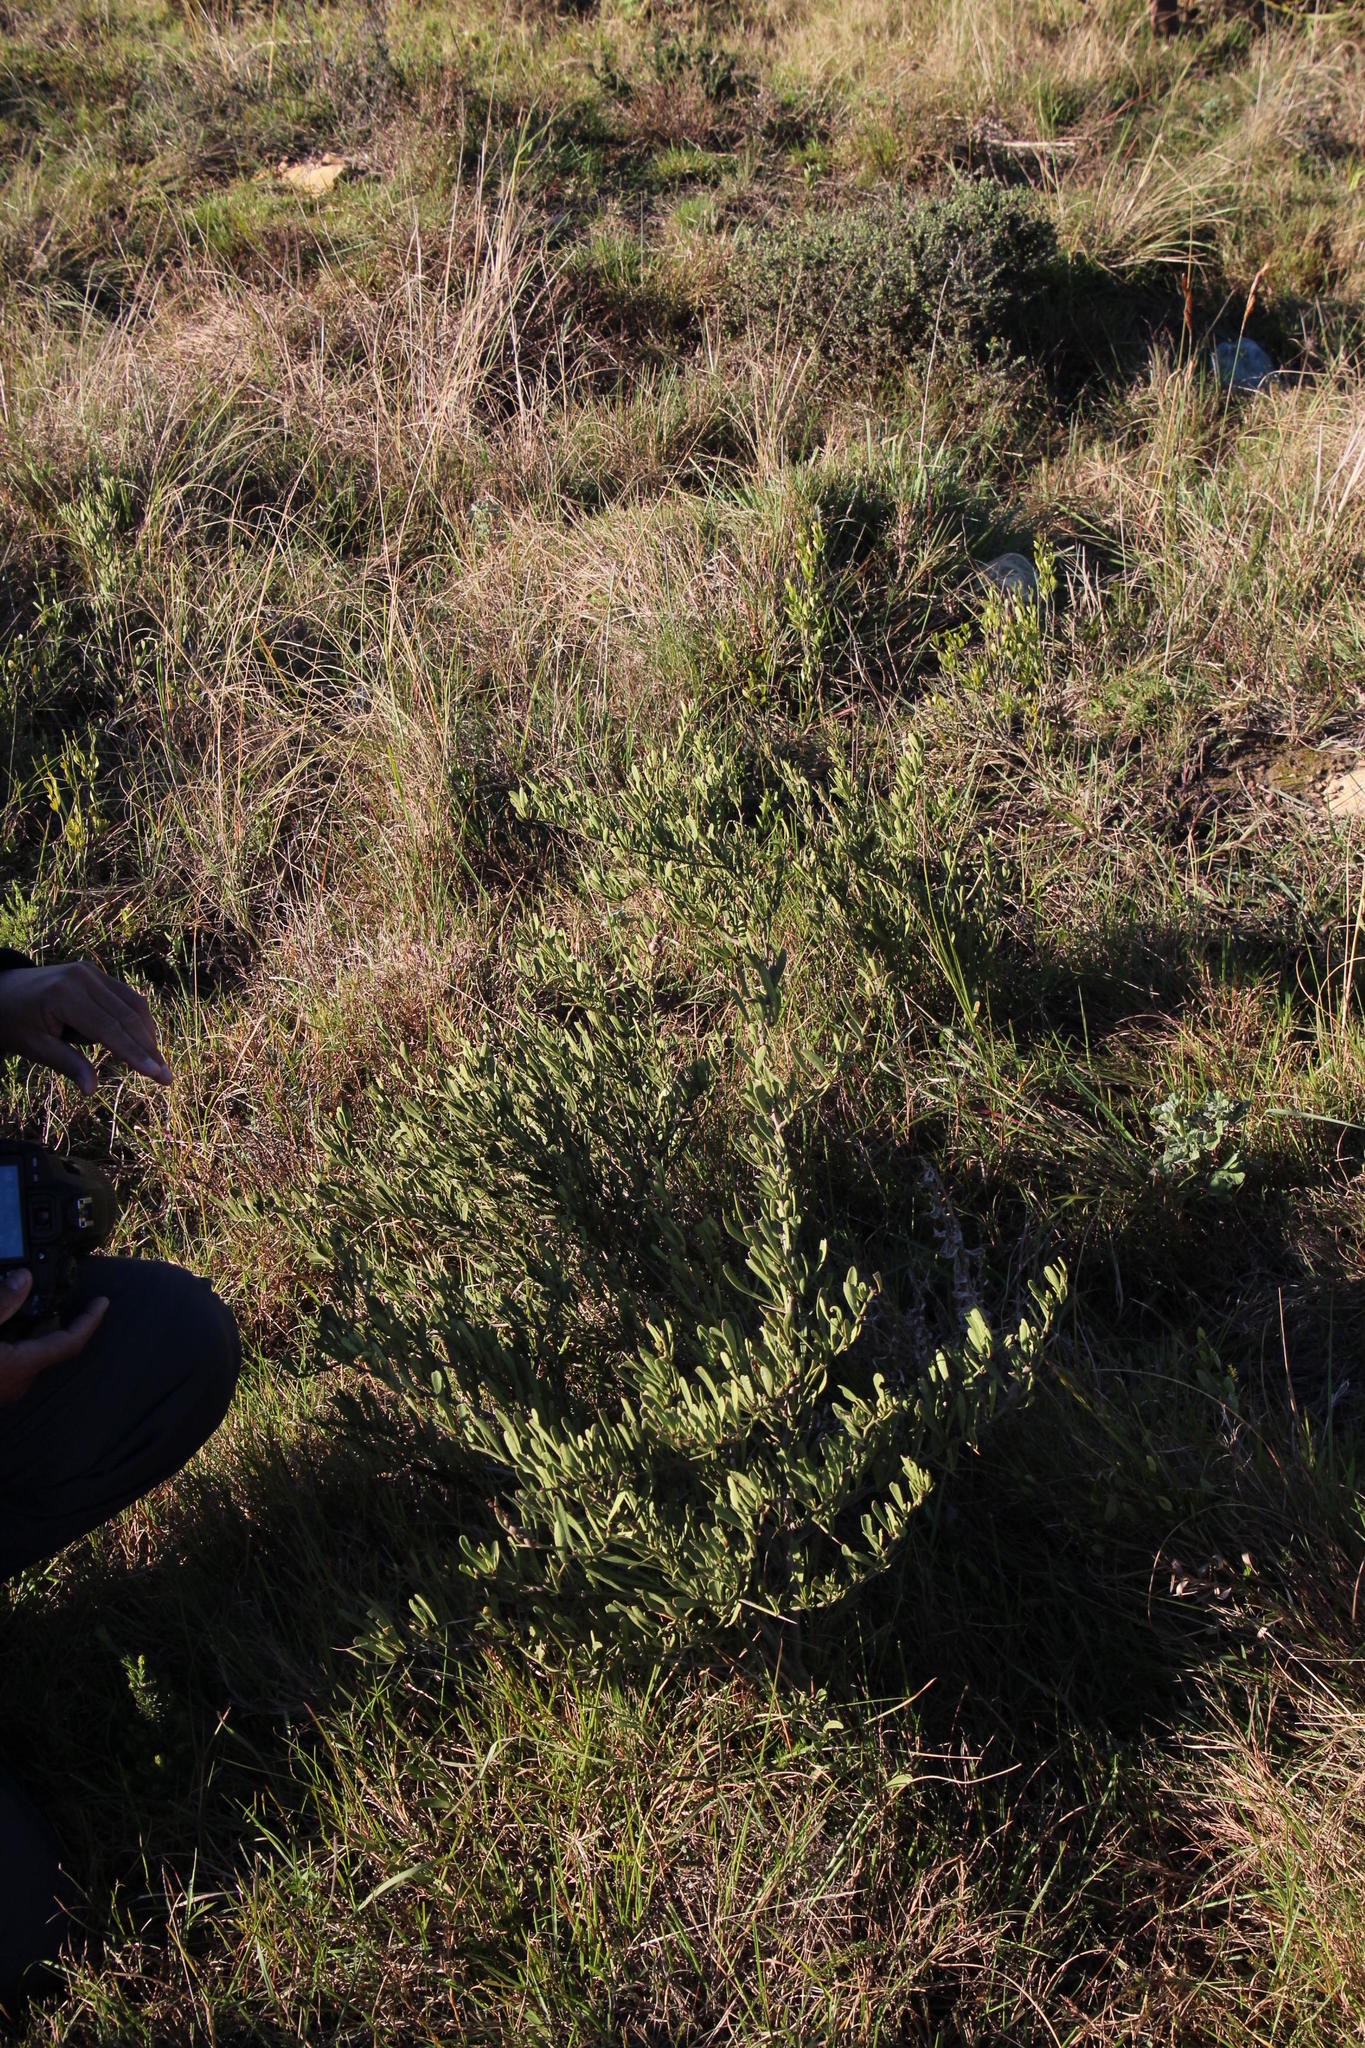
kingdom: Plantae
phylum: Tracheophyta
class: Magnoliopsida
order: Celastrales
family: Celastraceae
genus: Gymnosporia
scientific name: Gymnosporia elliptica
